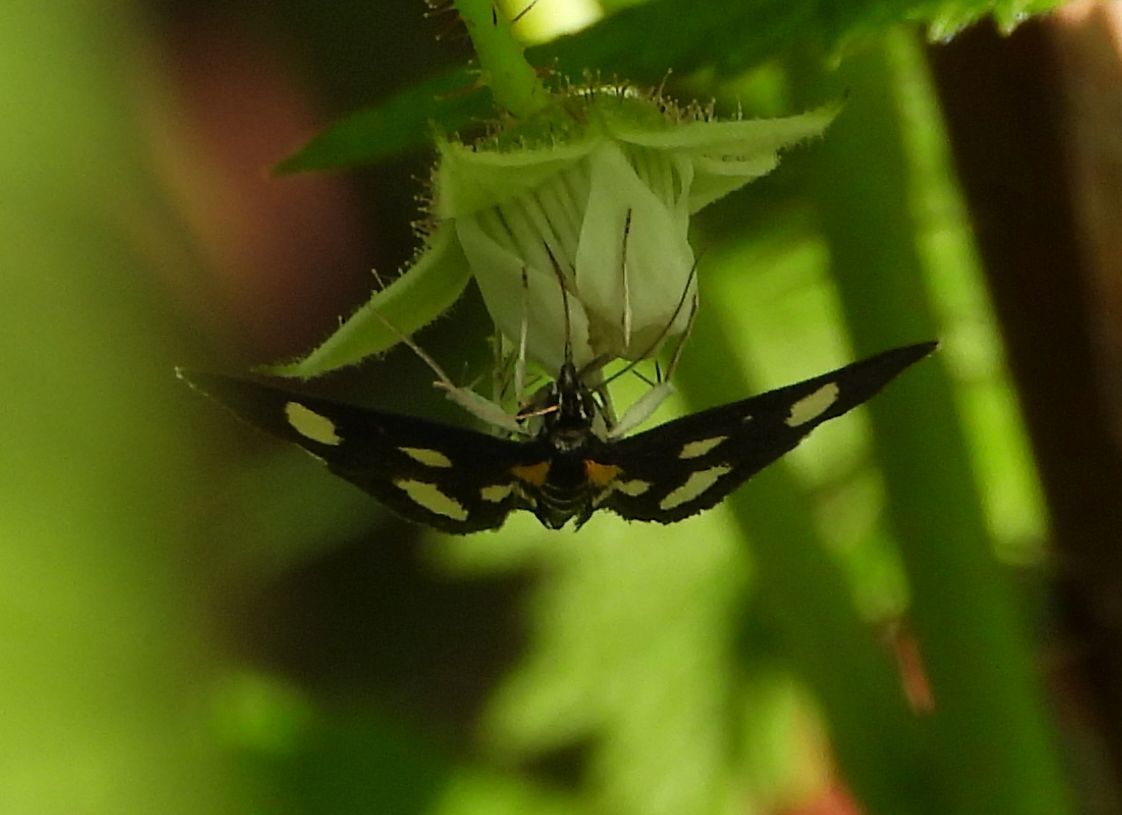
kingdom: Animalia
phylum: Arthropoda
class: Insecta
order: Lepidoptera
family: Crambidae
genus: Anania
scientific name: Anania funebris
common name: White-spotted sable moth
